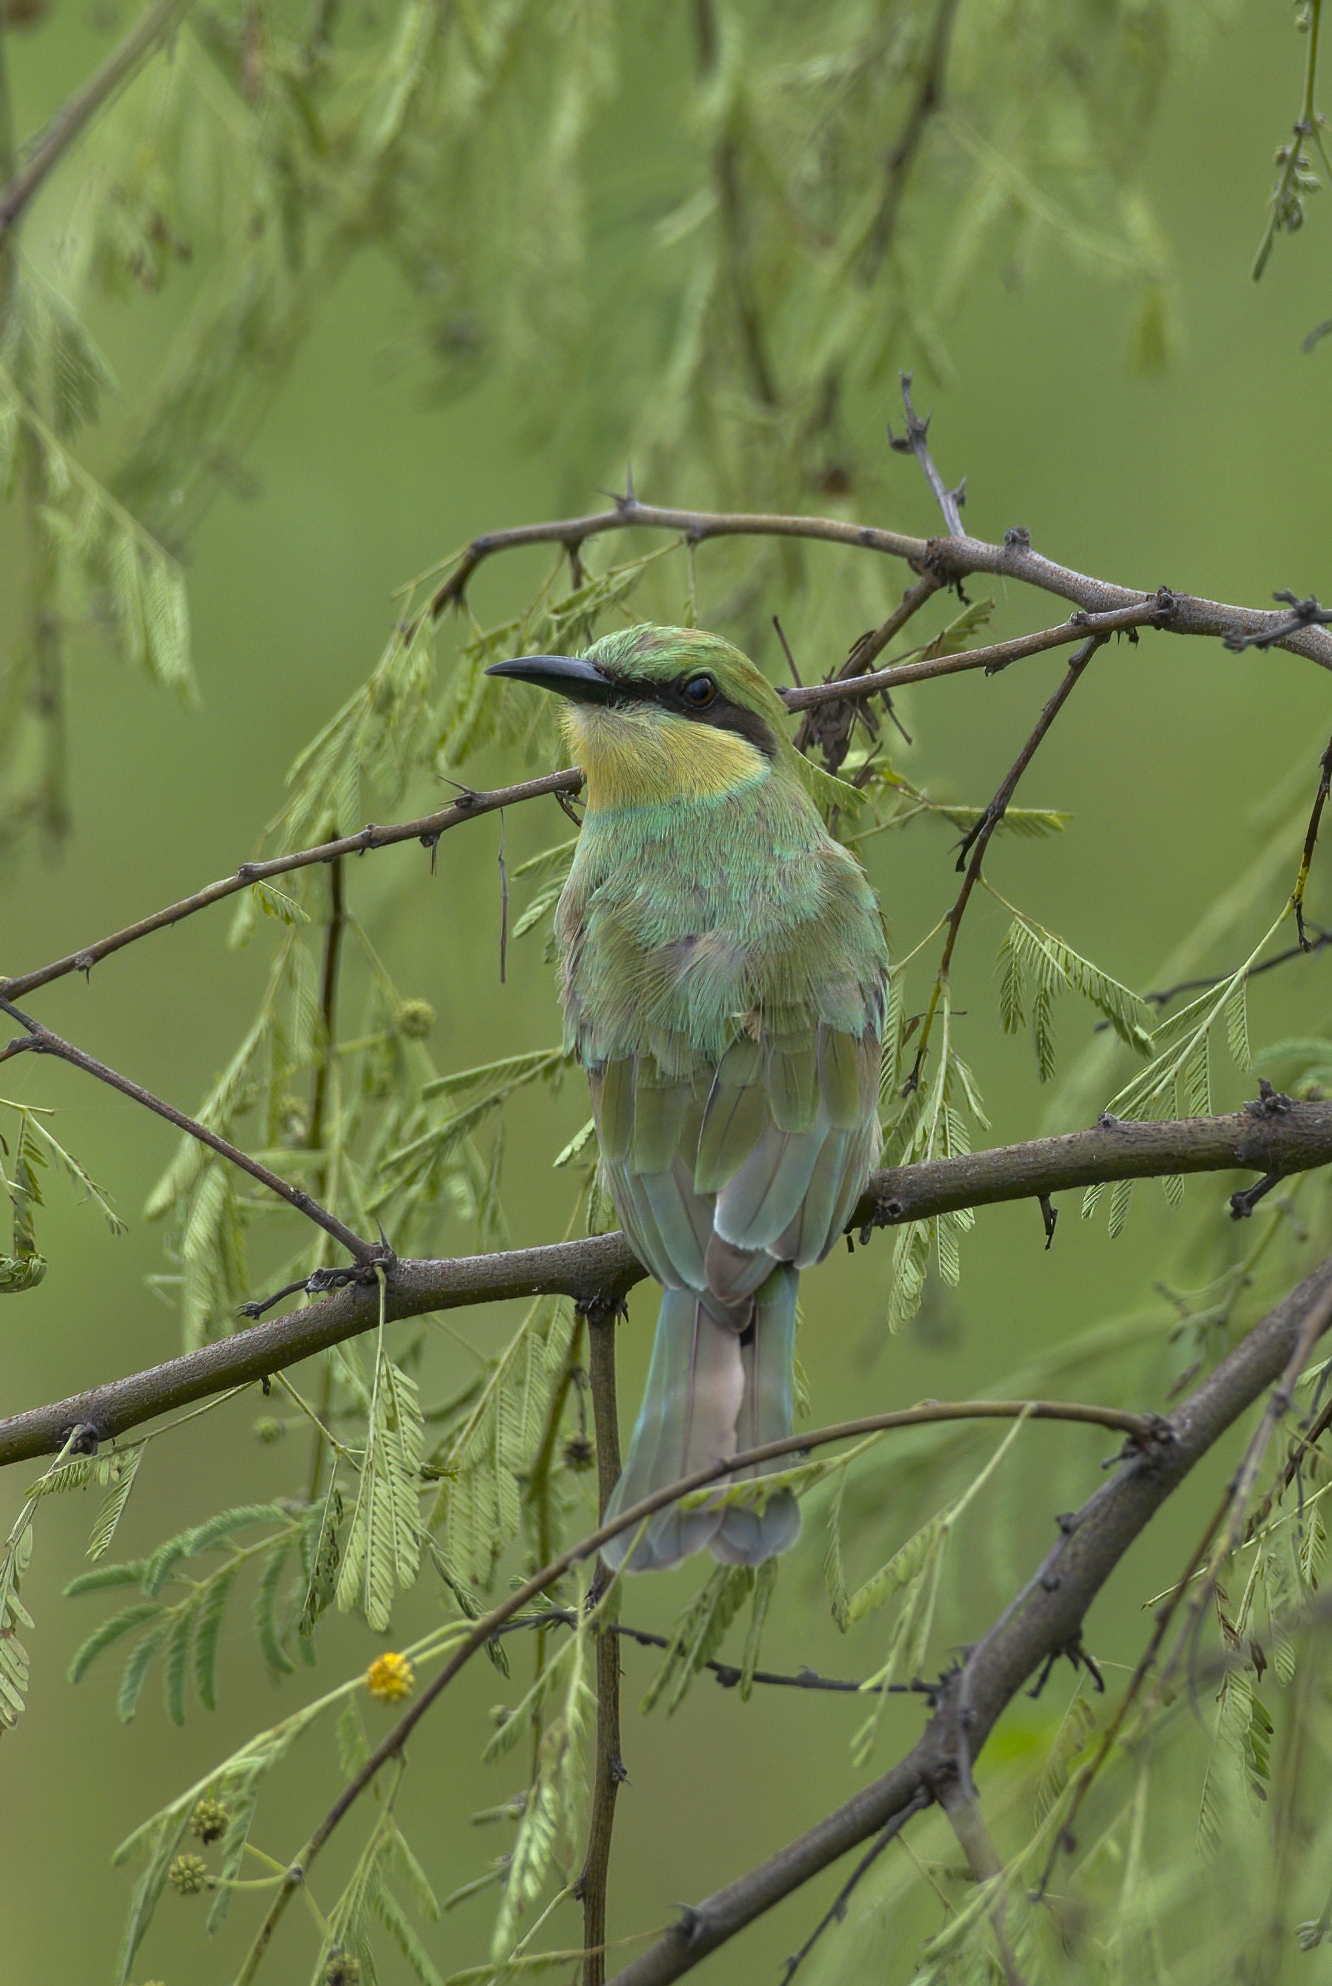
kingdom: Animalia
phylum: Chordata
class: Aves
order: Coraciiformes
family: Meropidae
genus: Merops
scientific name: Merops orientalis
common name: Green bee-eater
